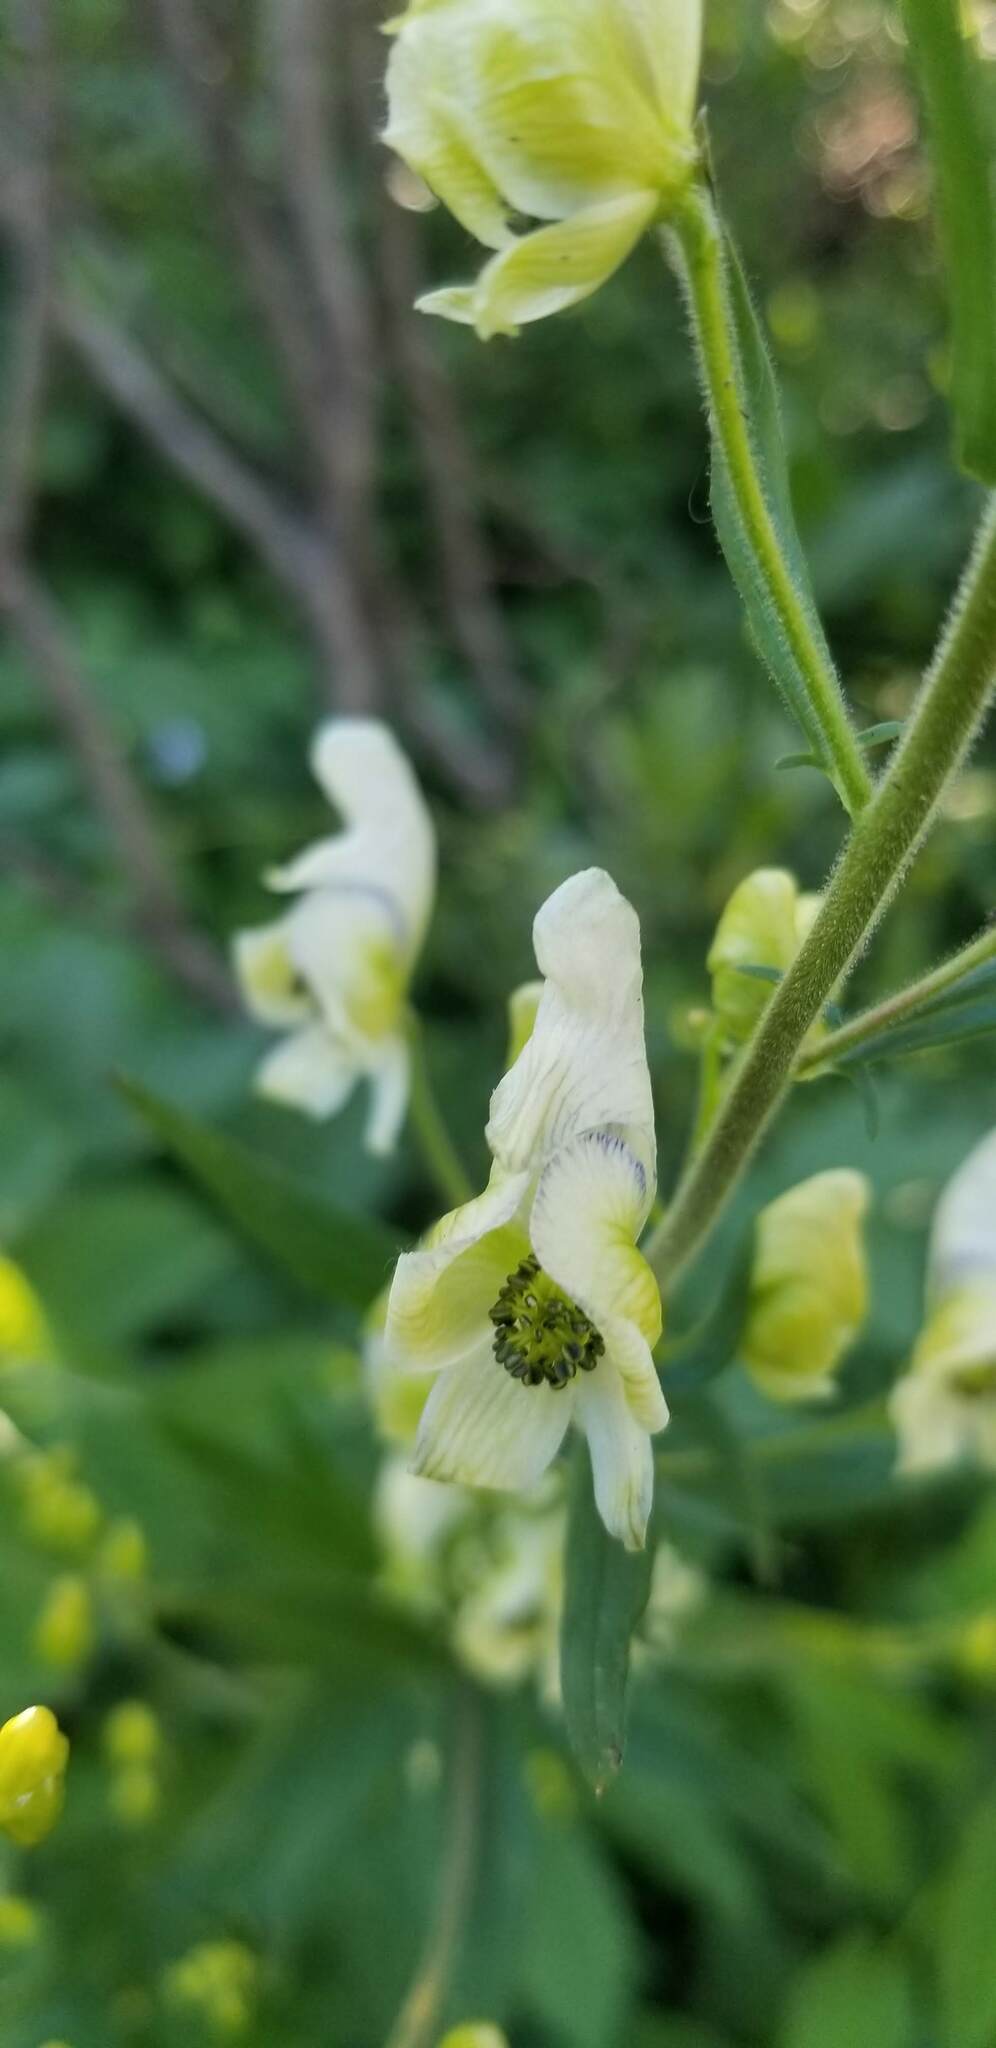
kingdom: Plantae
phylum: Tracheophyta
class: Magnoliopsida
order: Ranunculales
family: Ranunculaceae
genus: Aconitum
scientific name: Aconitum columbianum
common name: Columbia aconite
